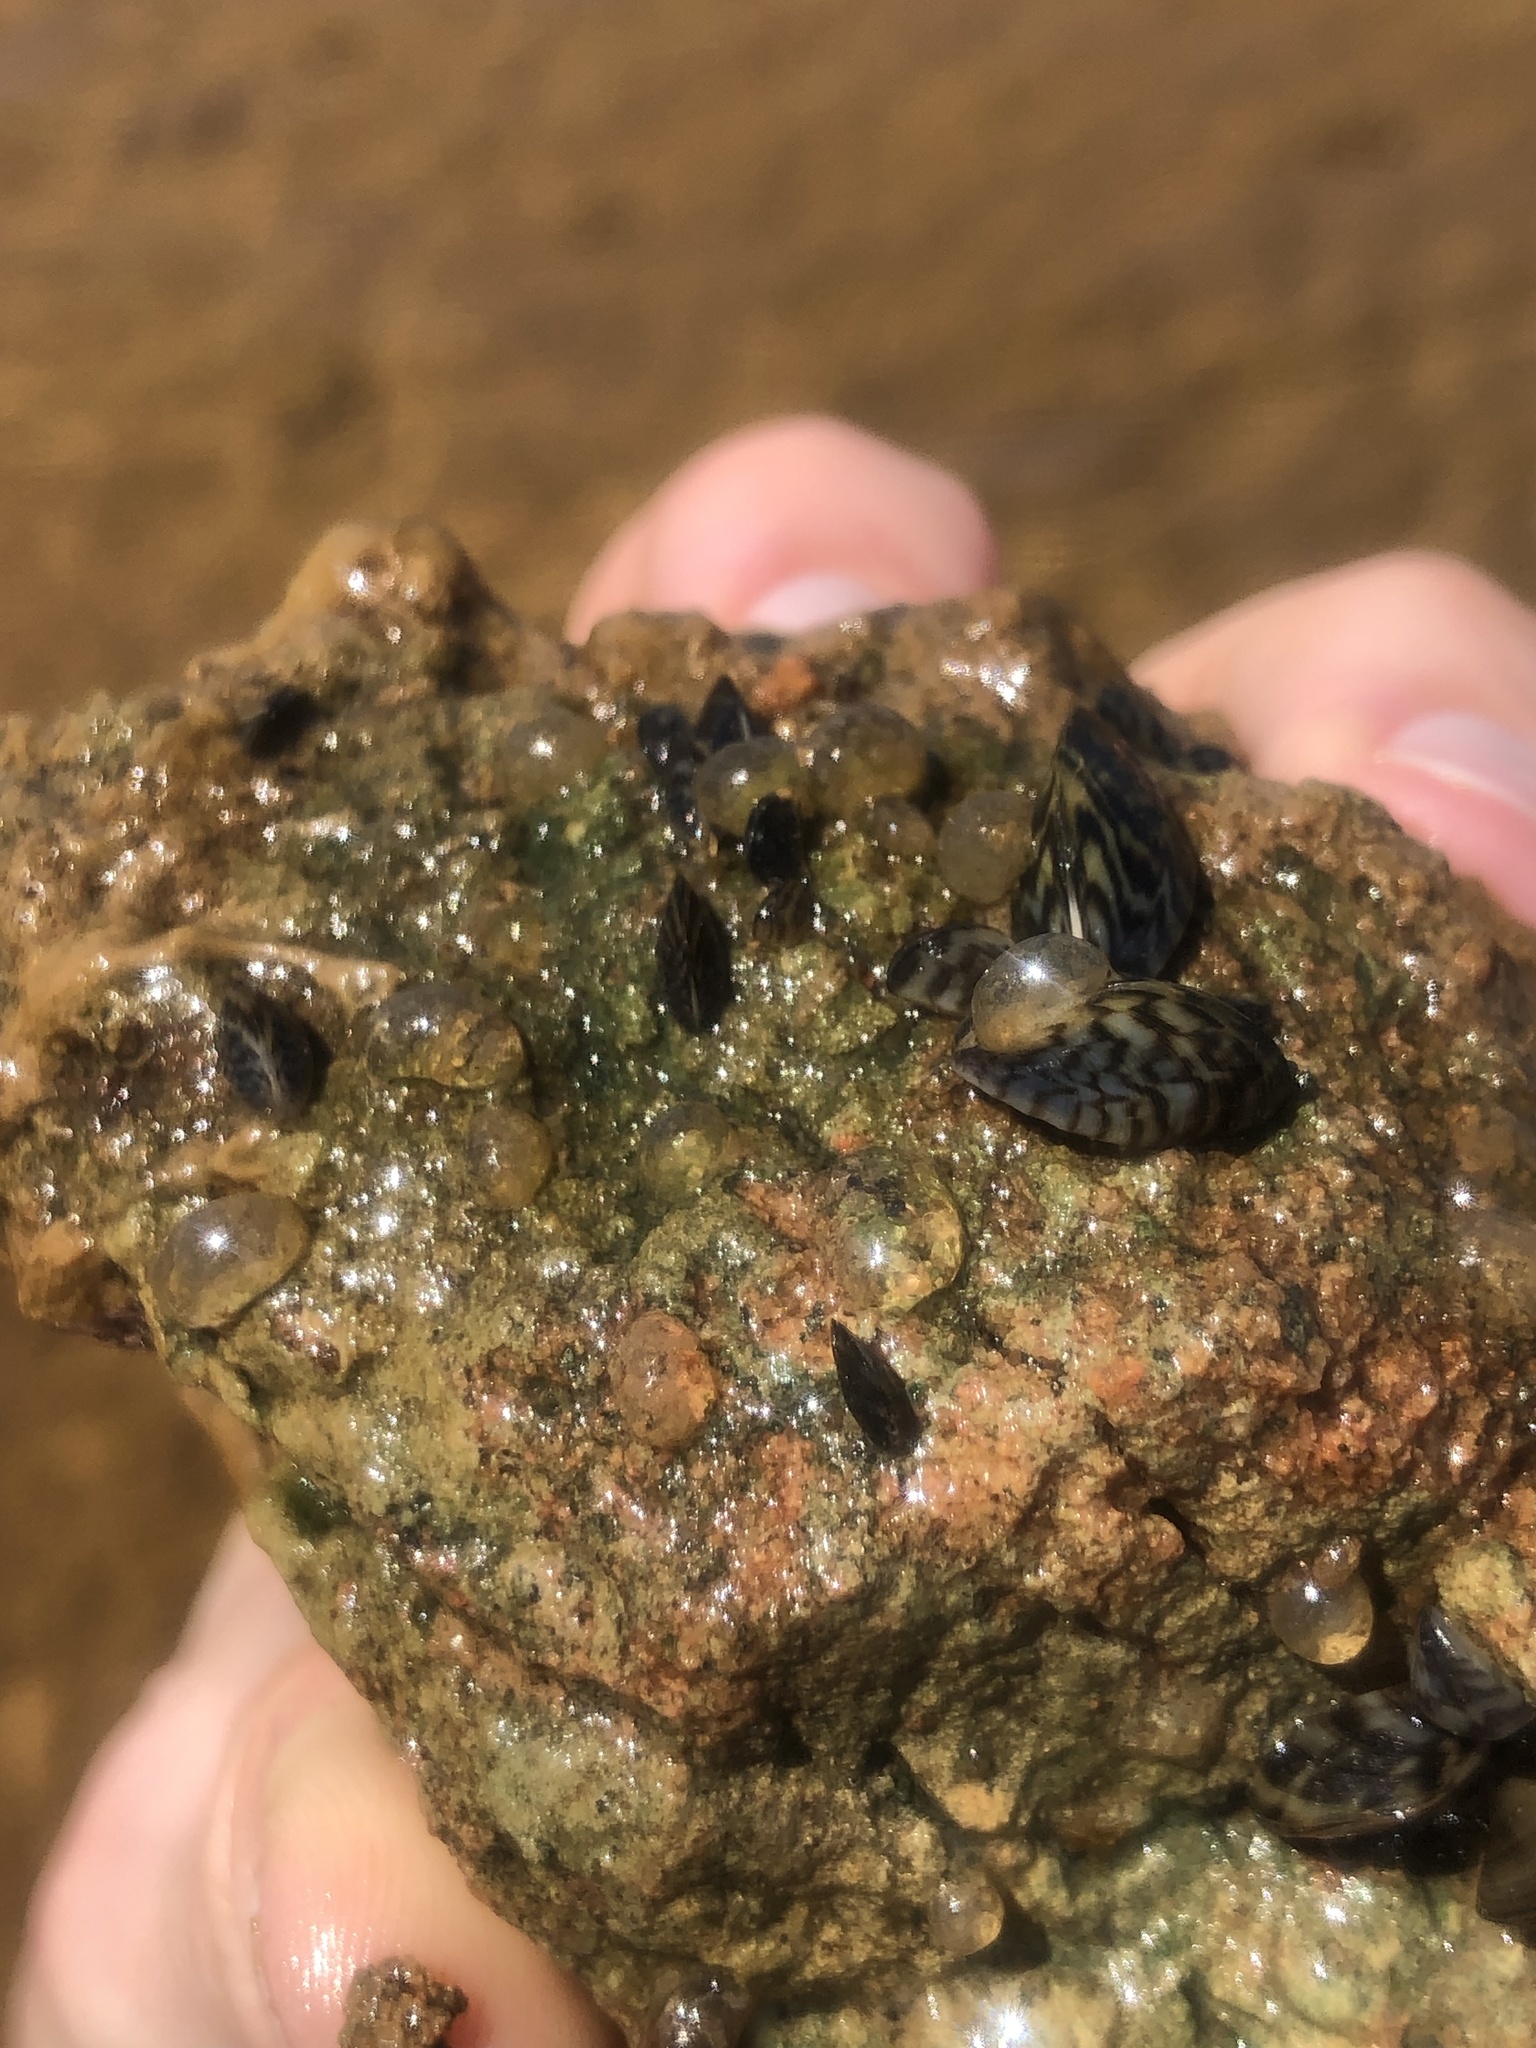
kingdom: Animalia
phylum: Mollusca
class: Bivalvia
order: Myida
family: Dreissenidae
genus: Dreissena
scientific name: Dreissena polymorpha
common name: Zebra mussel
